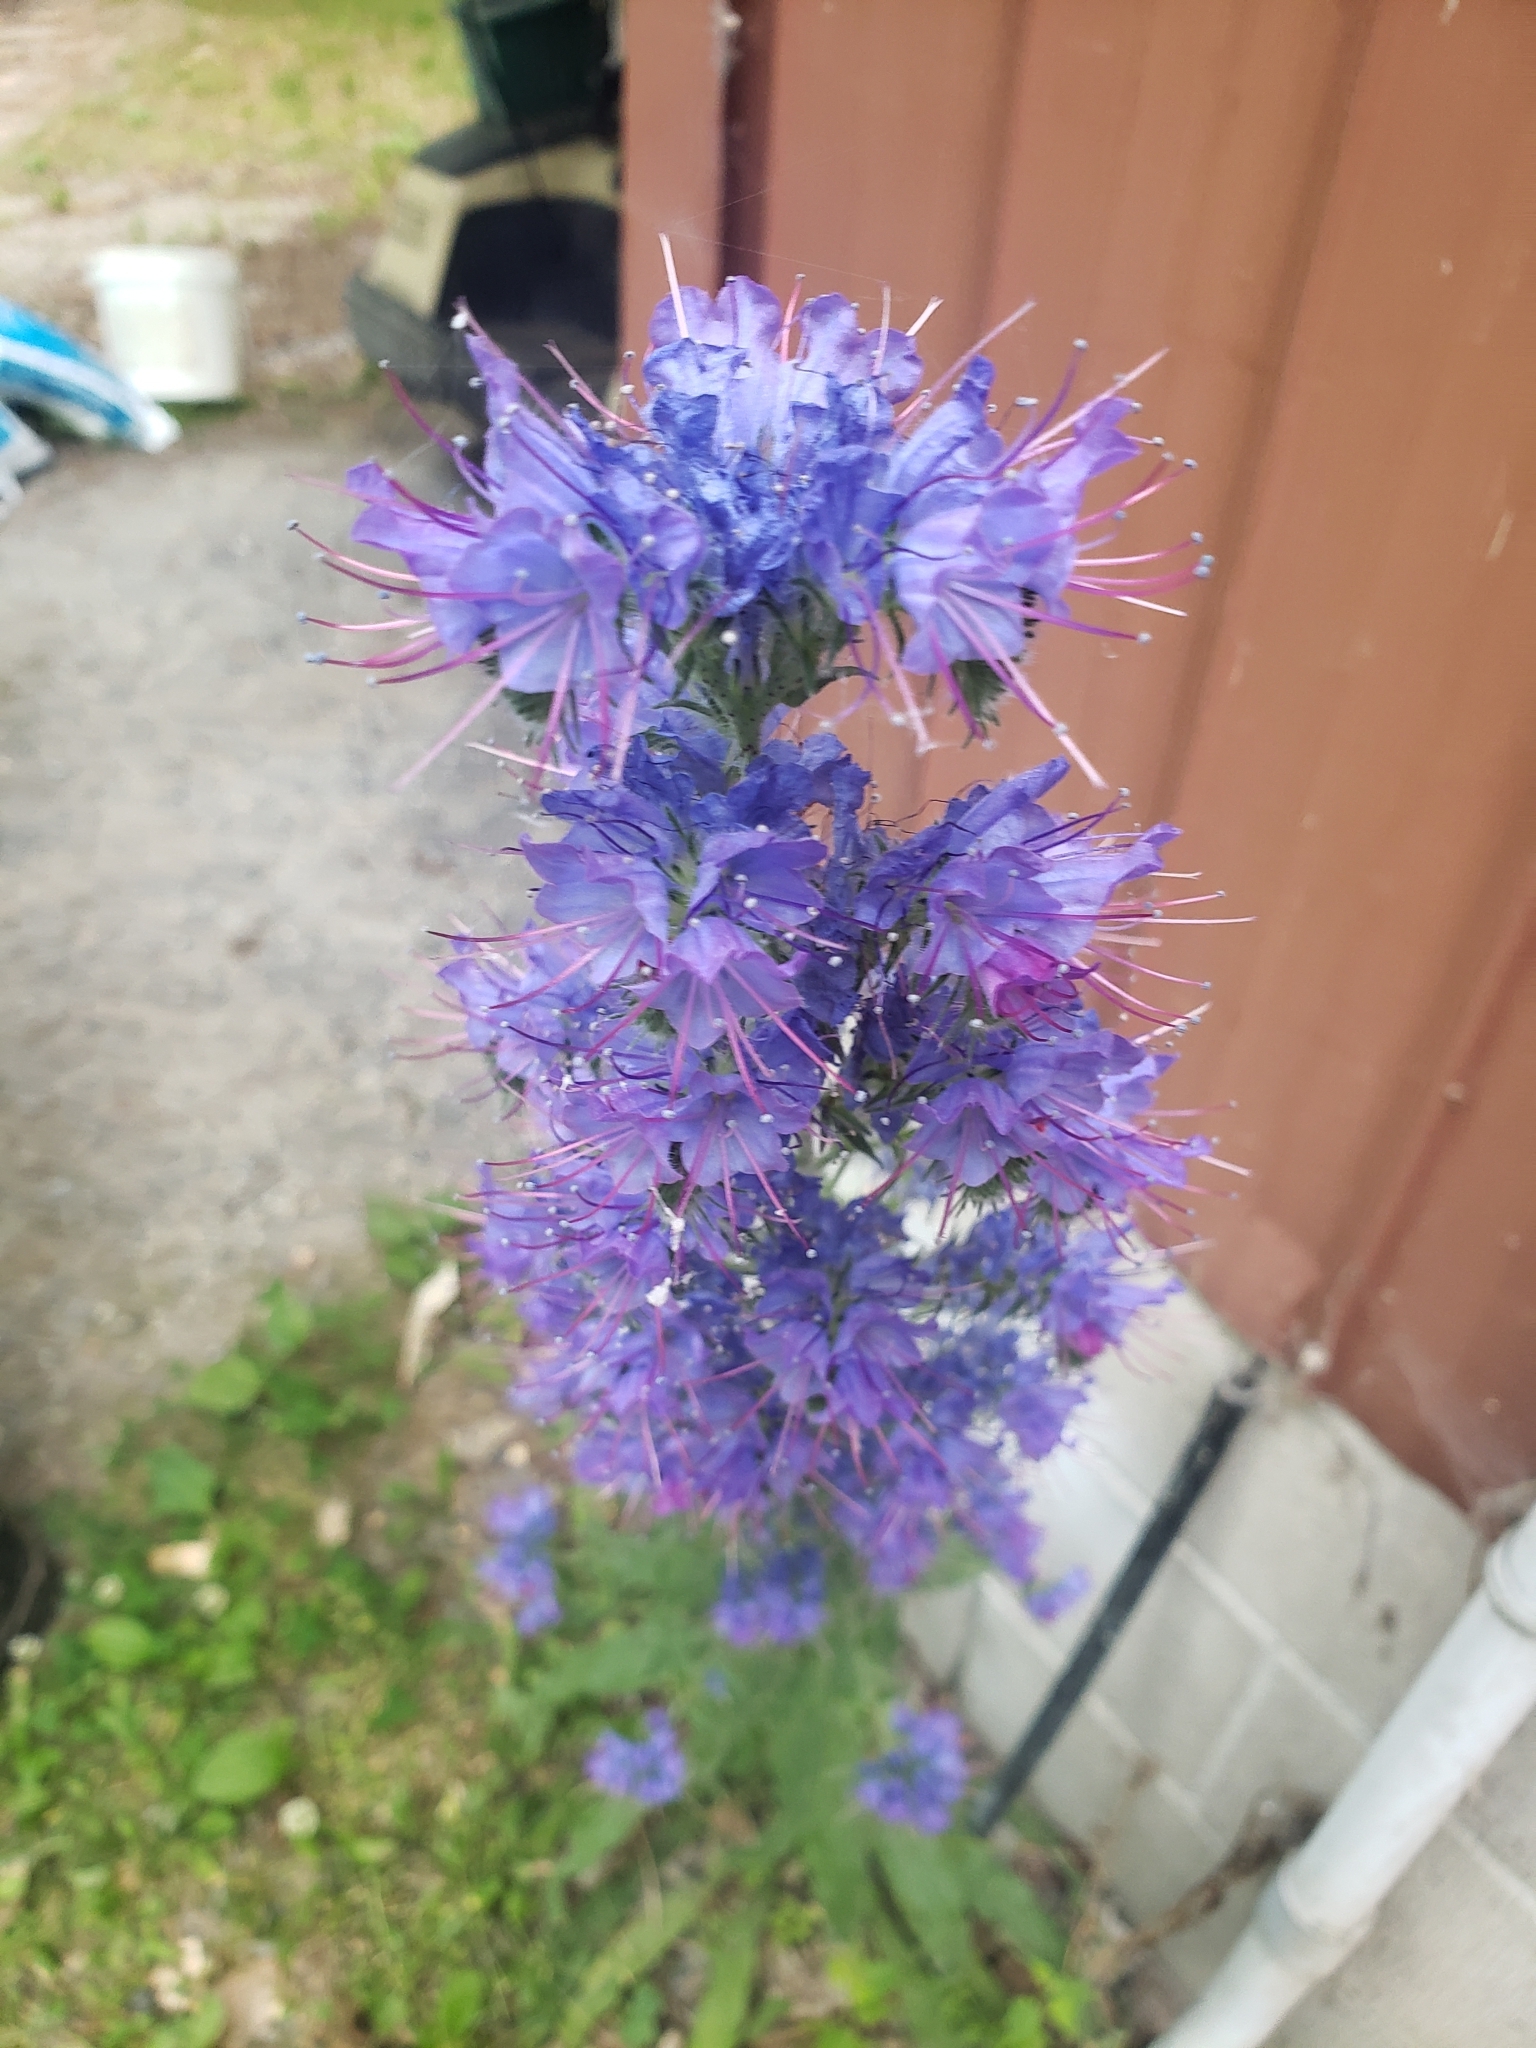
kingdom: Plantae
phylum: Tracheophyta
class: Magnoliopsida
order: Boraginales
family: Boraginaceae
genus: Echium
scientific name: Echium vulgare
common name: Common viper's bugloss
